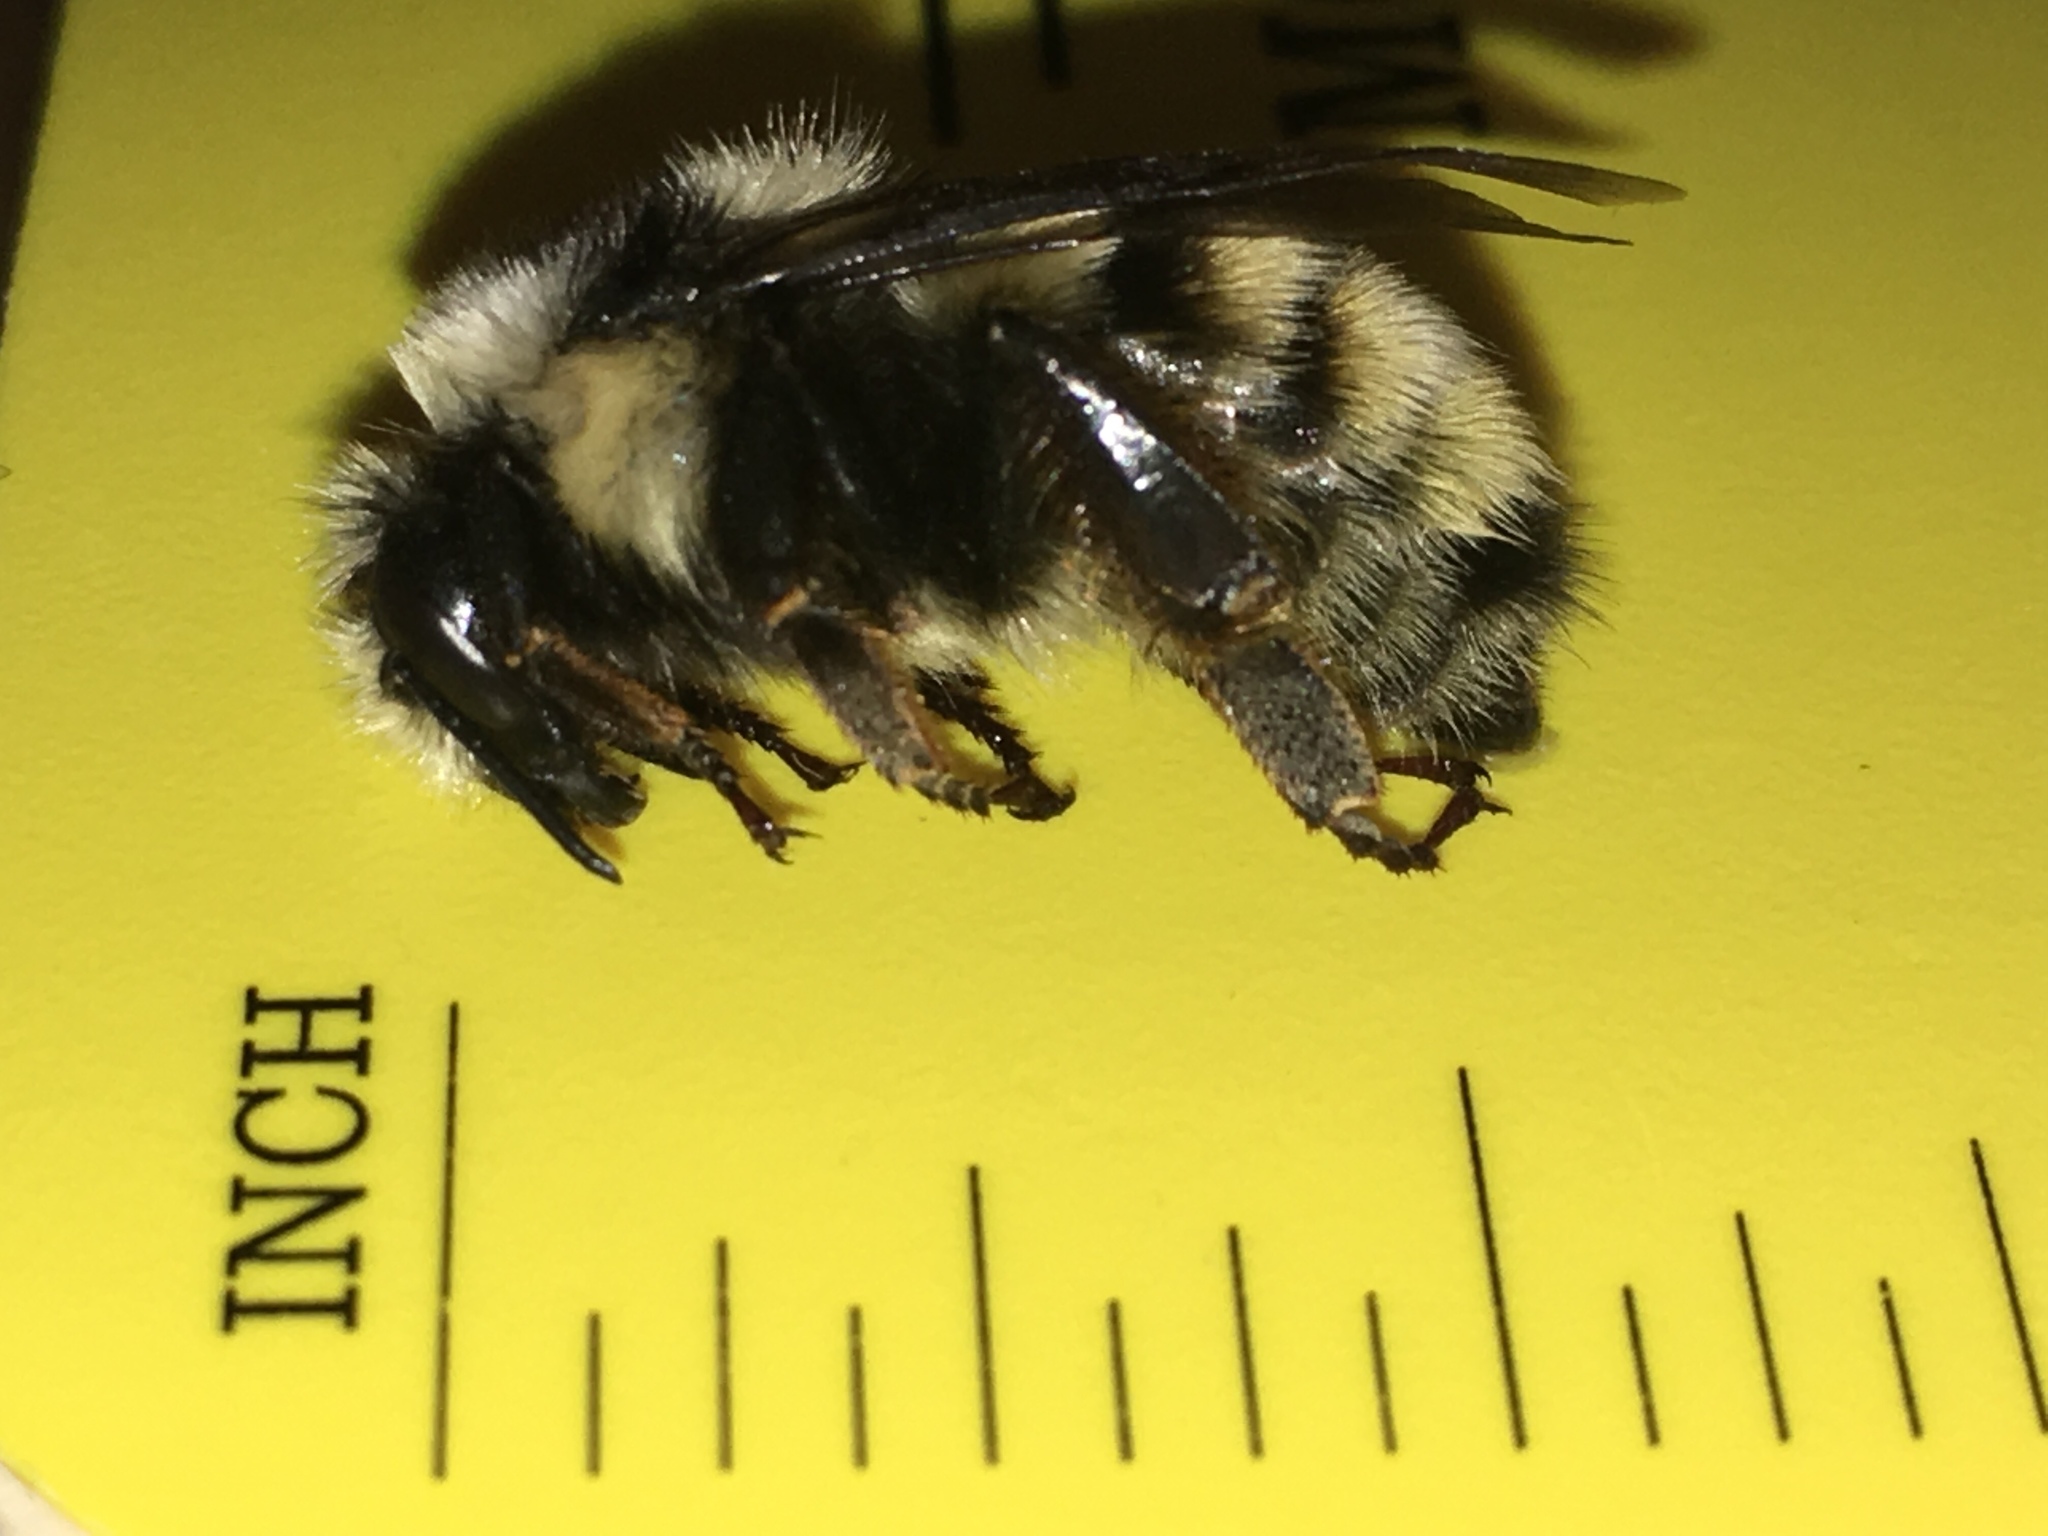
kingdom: Animalia
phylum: Arthropoda
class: Insecta
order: Hymenoptera
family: Apidae
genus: Bombus
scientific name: Bombus vancouverensis
